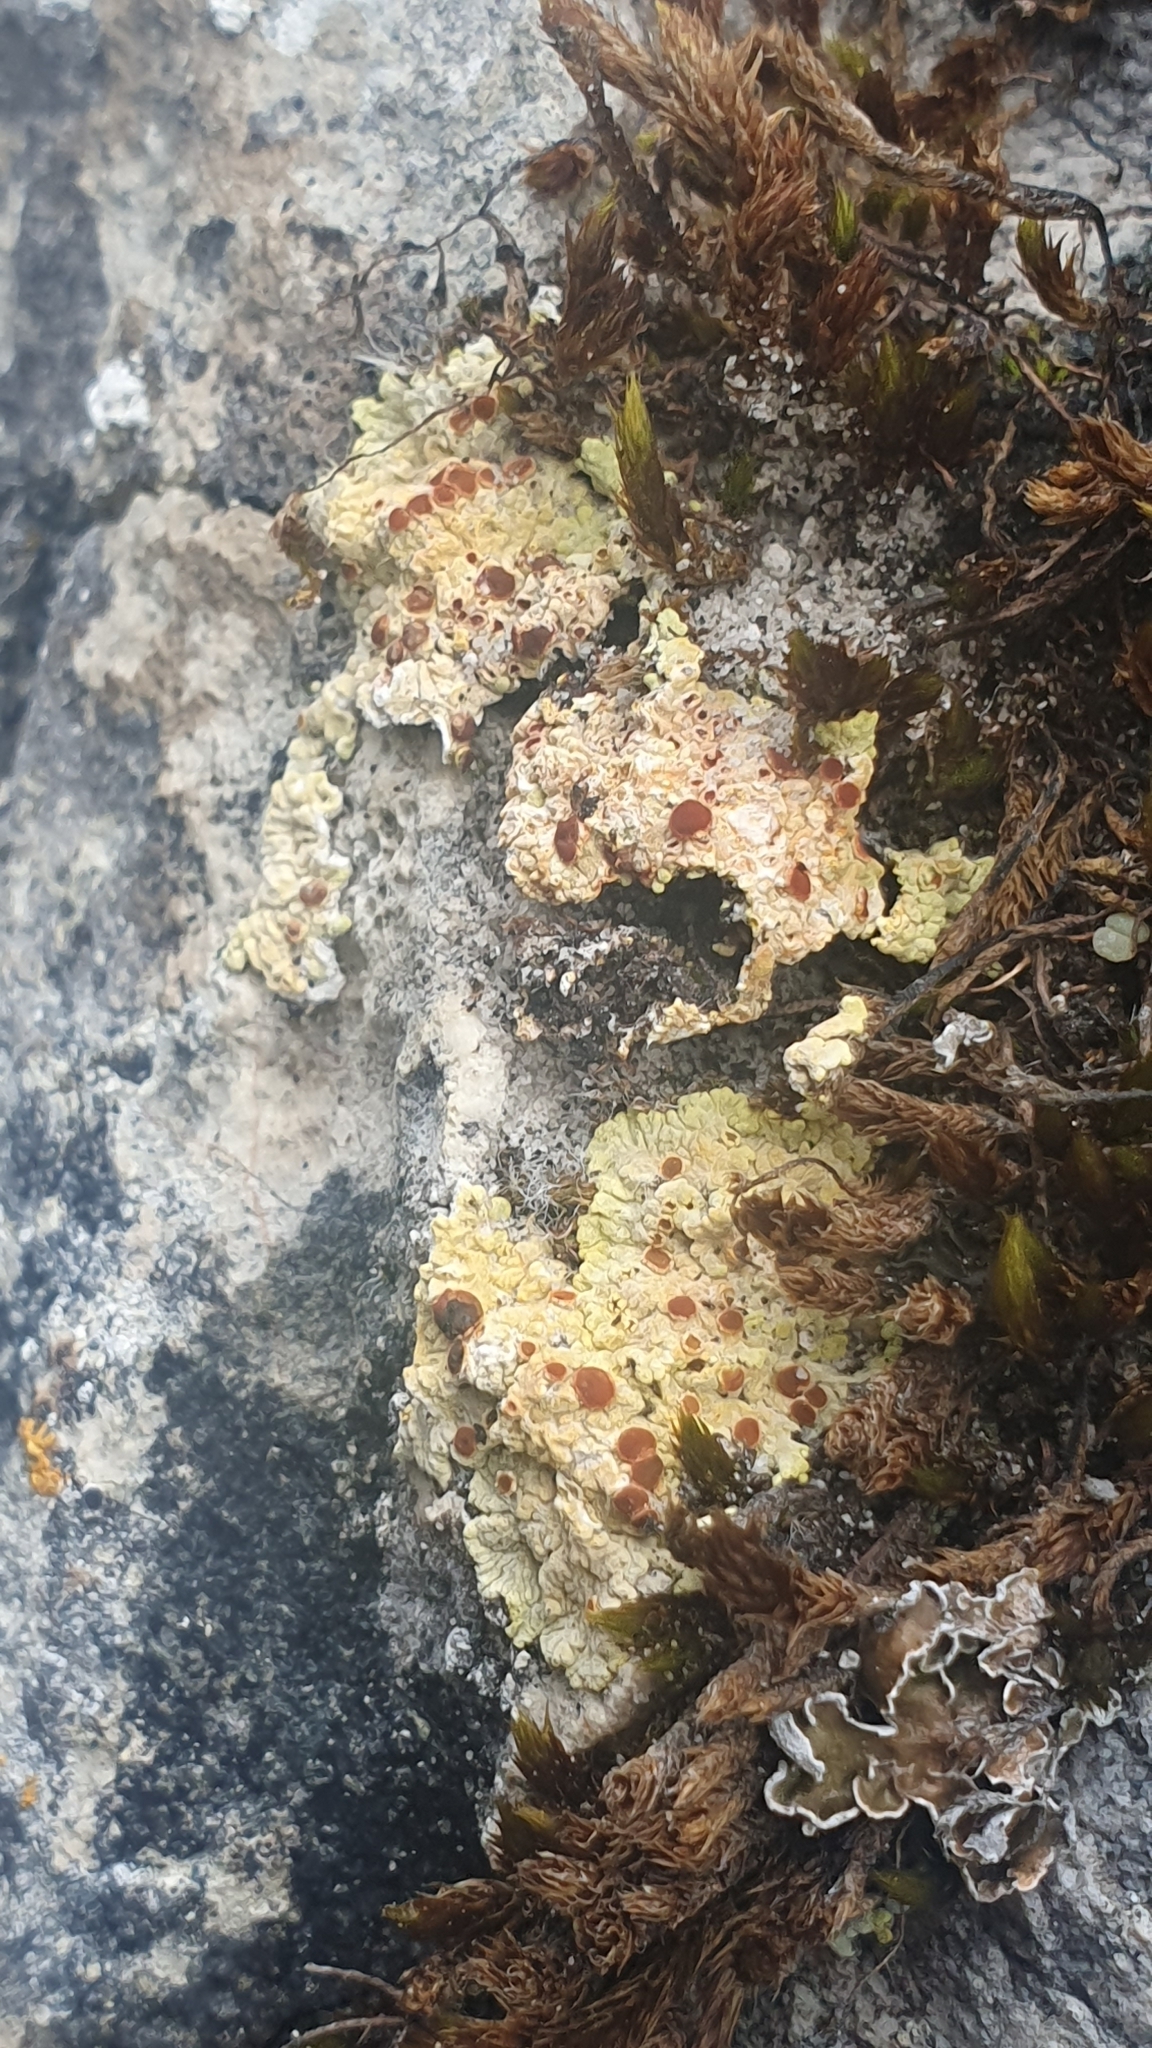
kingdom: Fungi
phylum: Ascomycota
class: Lecanoromycetes
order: Teloschistales
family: Teloschistaceae
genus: Gyalolechia
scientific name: Gyalolechia fulgens
